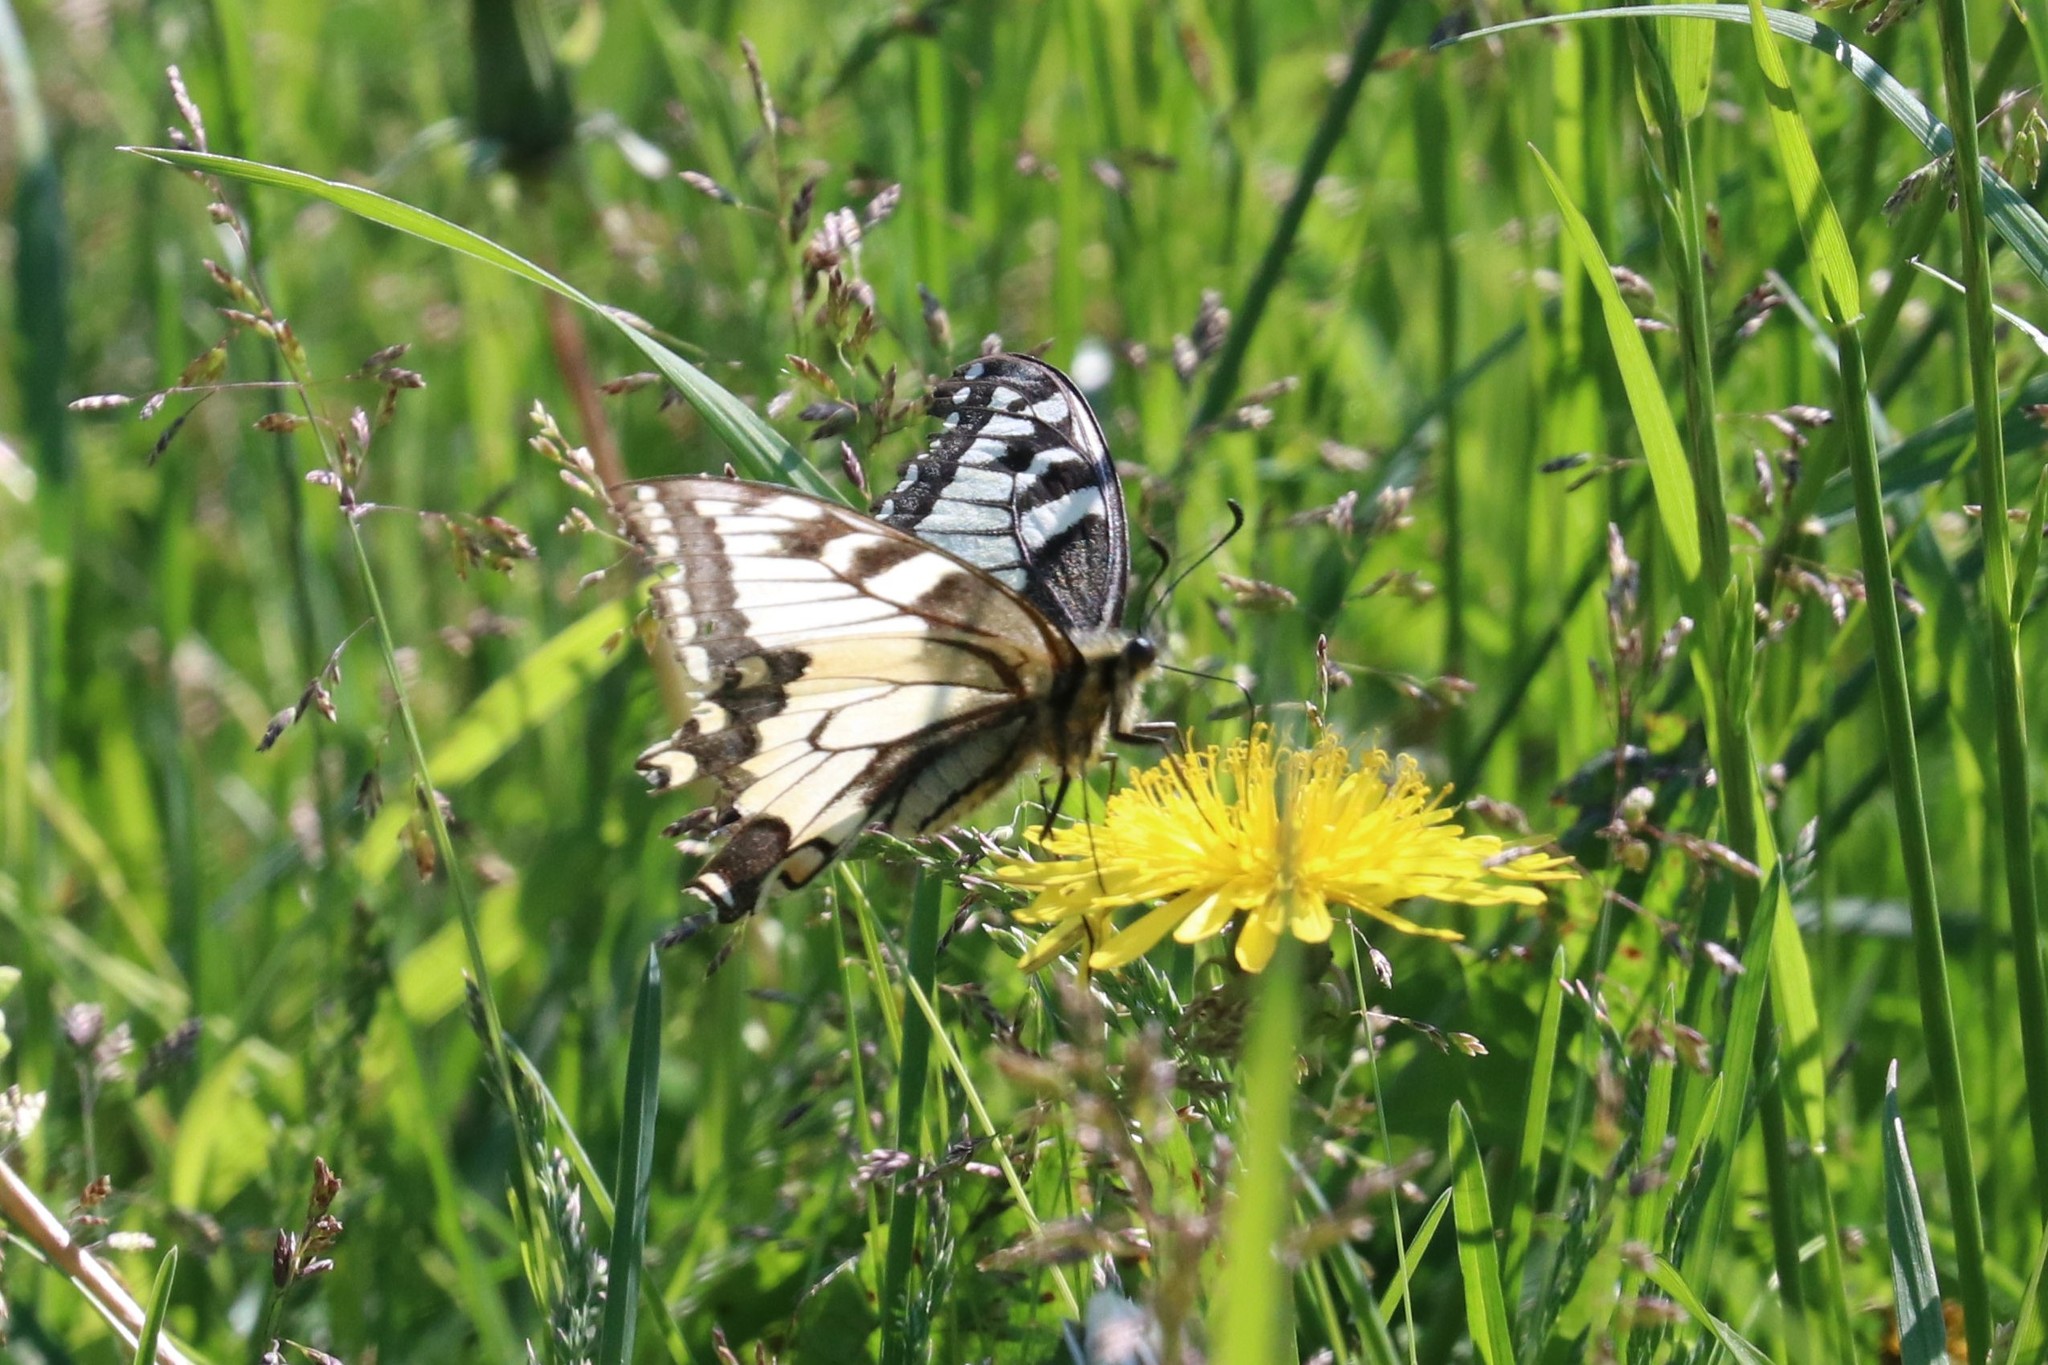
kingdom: Animalia
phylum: Arthropoda
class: Insecta
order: Lepidoptera
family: Papilionidae
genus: Papilio
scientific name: Papilio machaon
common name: Swallowtail
